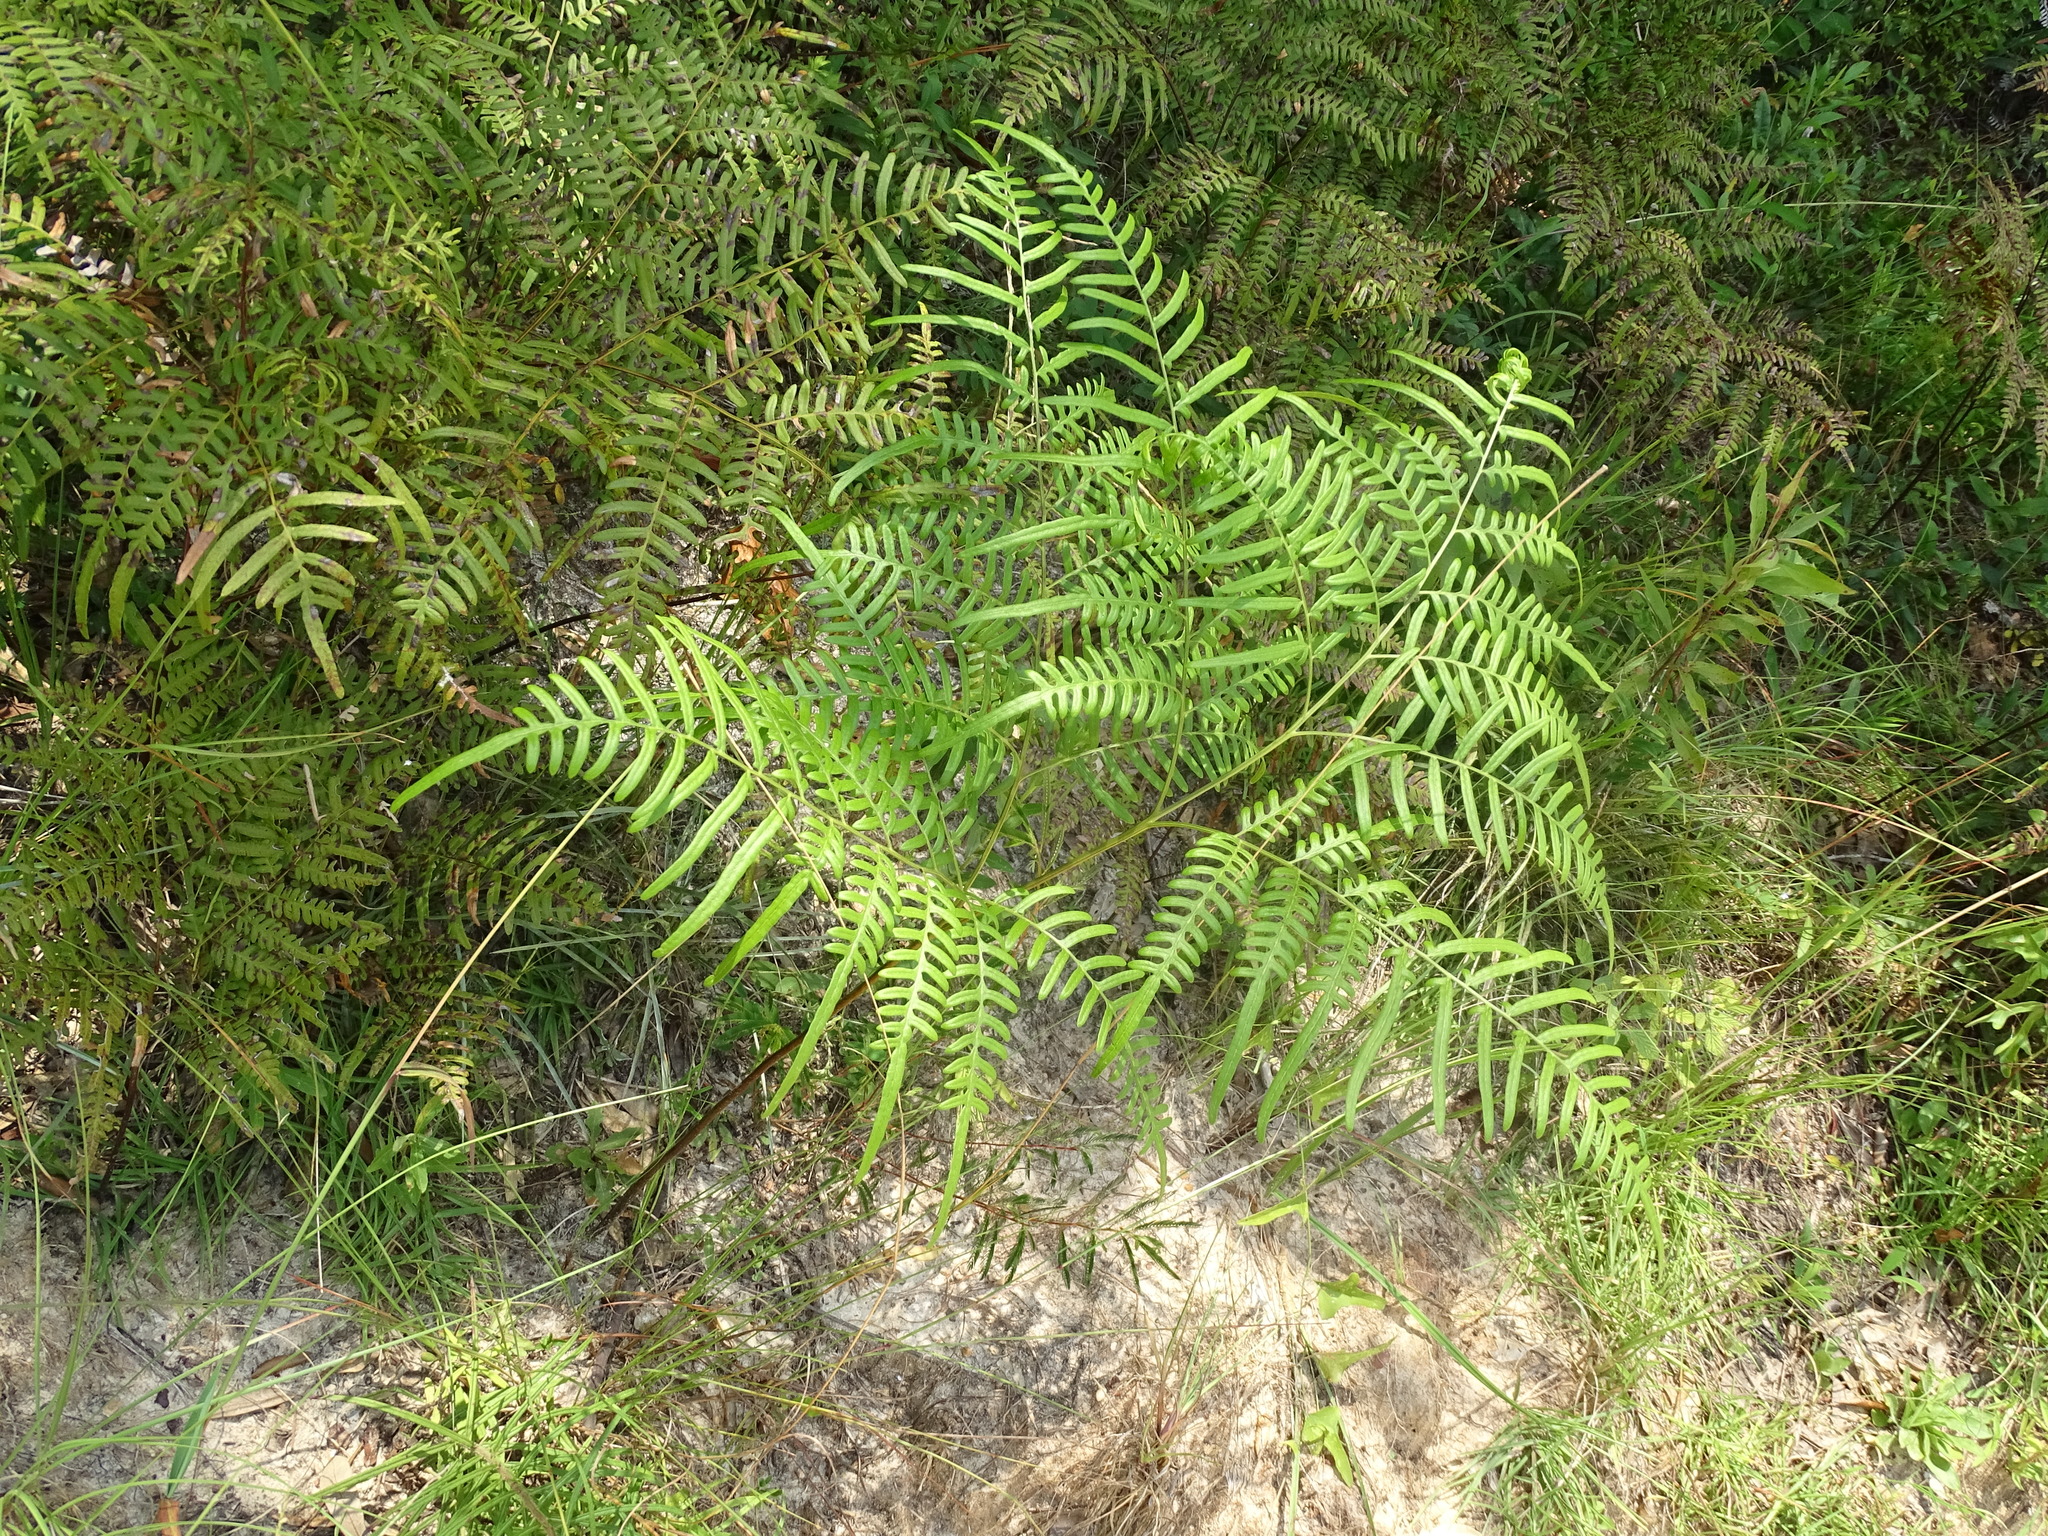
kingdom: Plantae
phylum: Tracheophyta
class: Polypodiopsida
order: Polypodiales
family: Dennstaedtiaceae
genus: Pteridium
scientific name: Pteridium aquilinum
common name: Bracken
